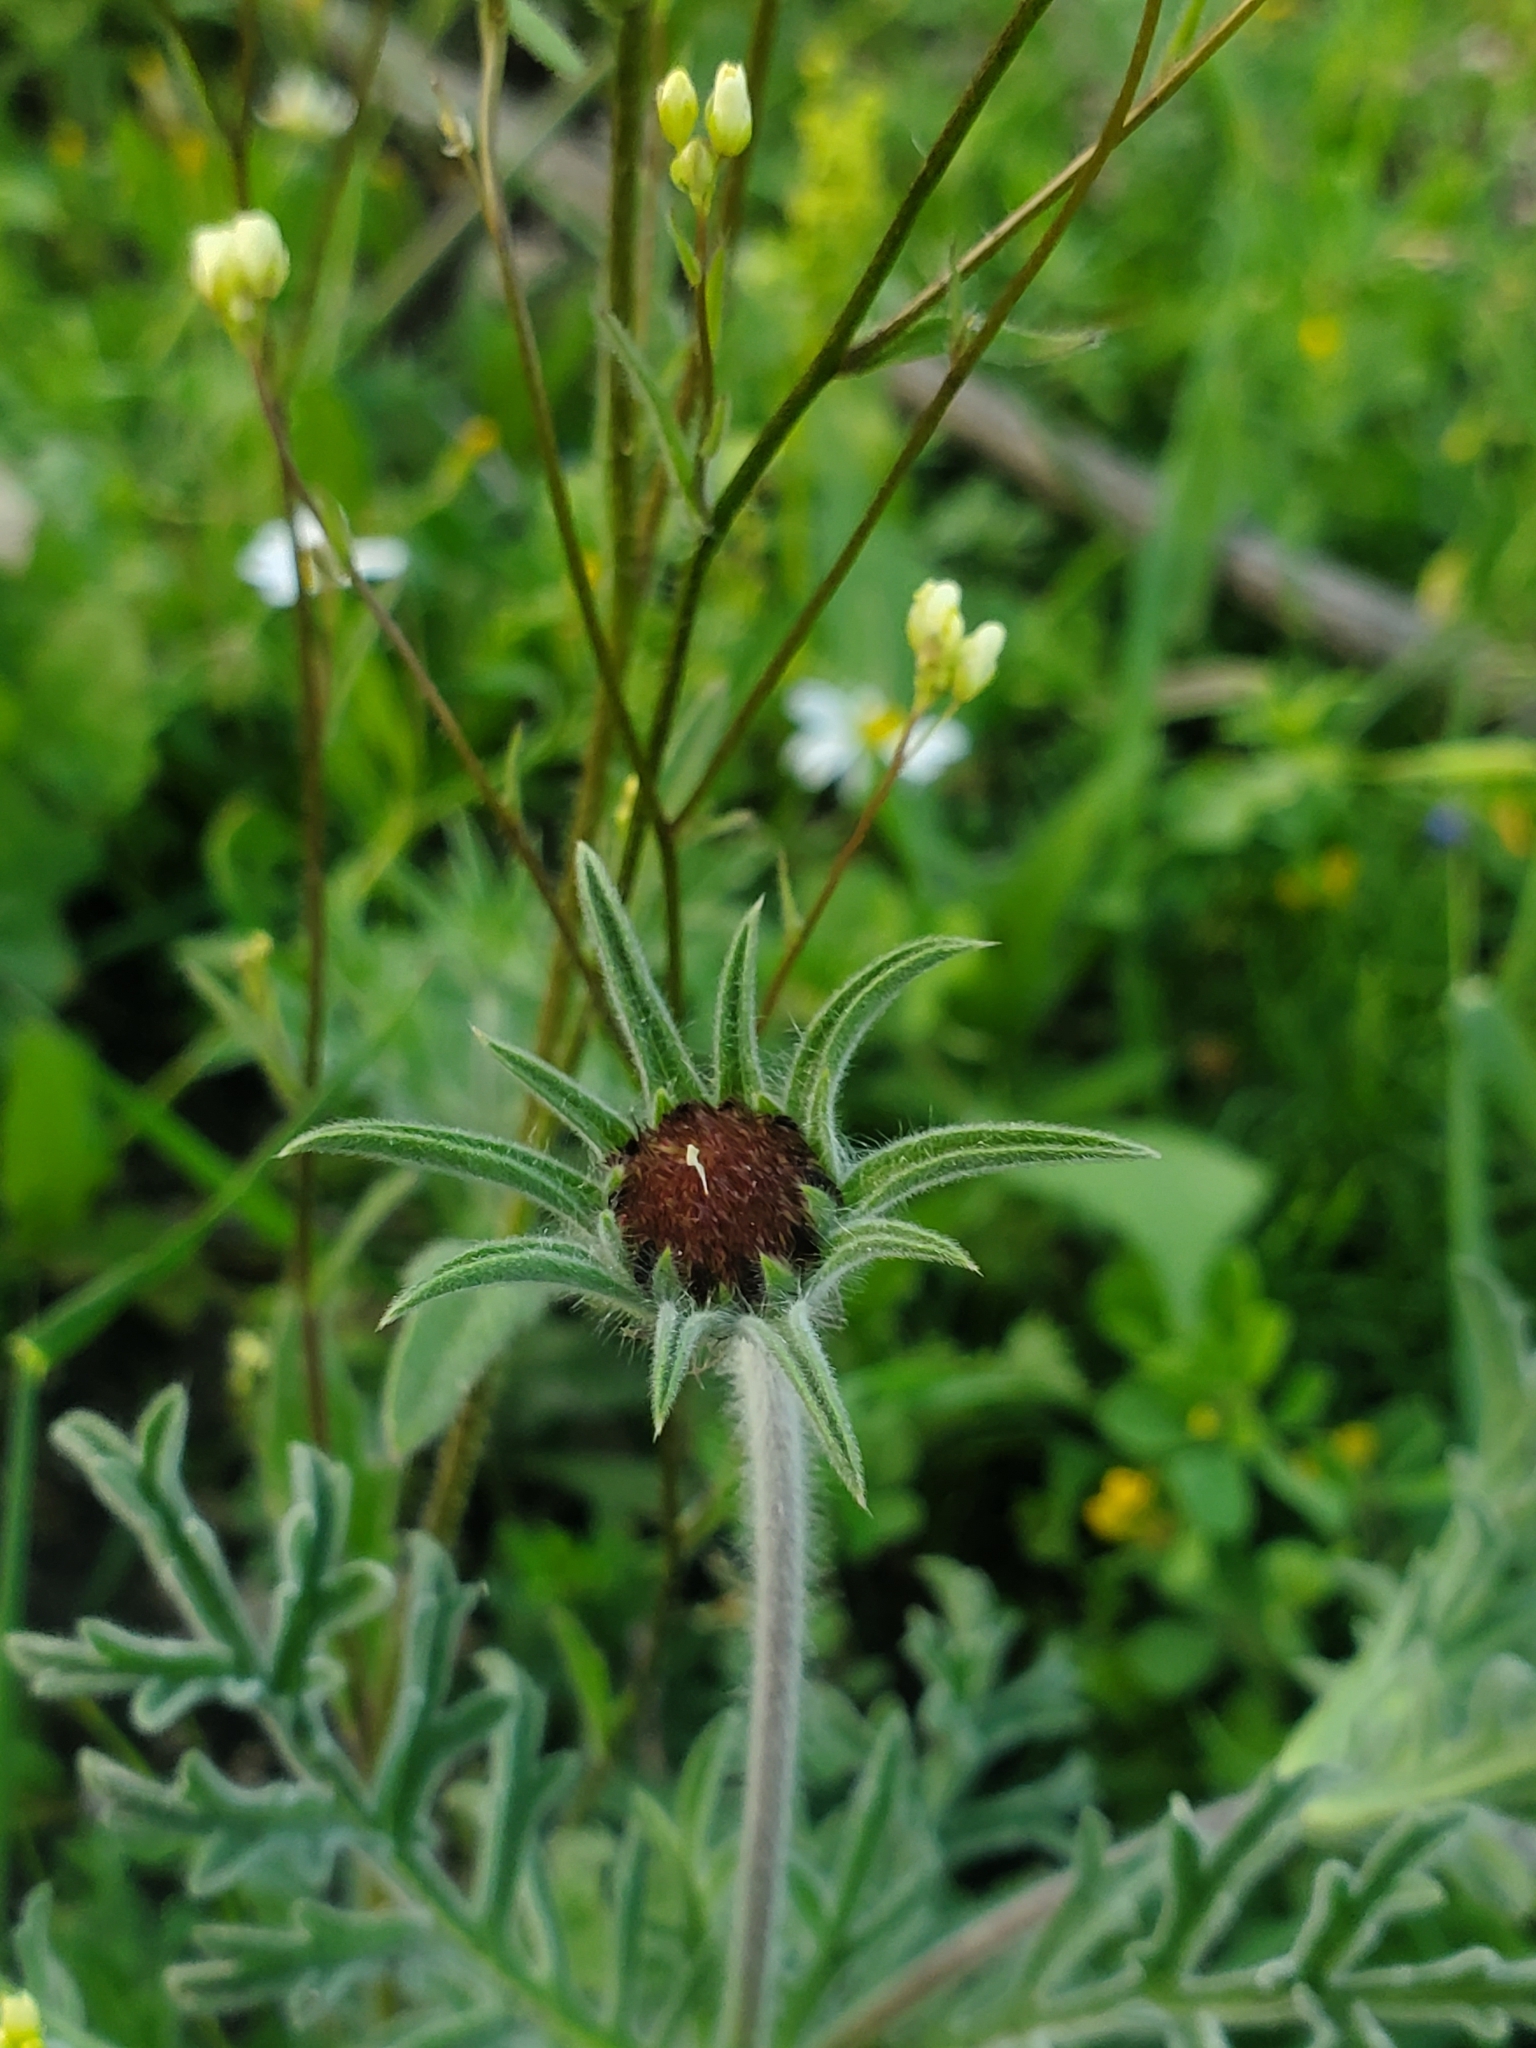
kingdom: Plantae
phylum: Tracheophyta
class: Magnoliopsida
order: Asterales
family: Asteraceae
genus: Pallenis
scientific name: Pallenis spinosa
